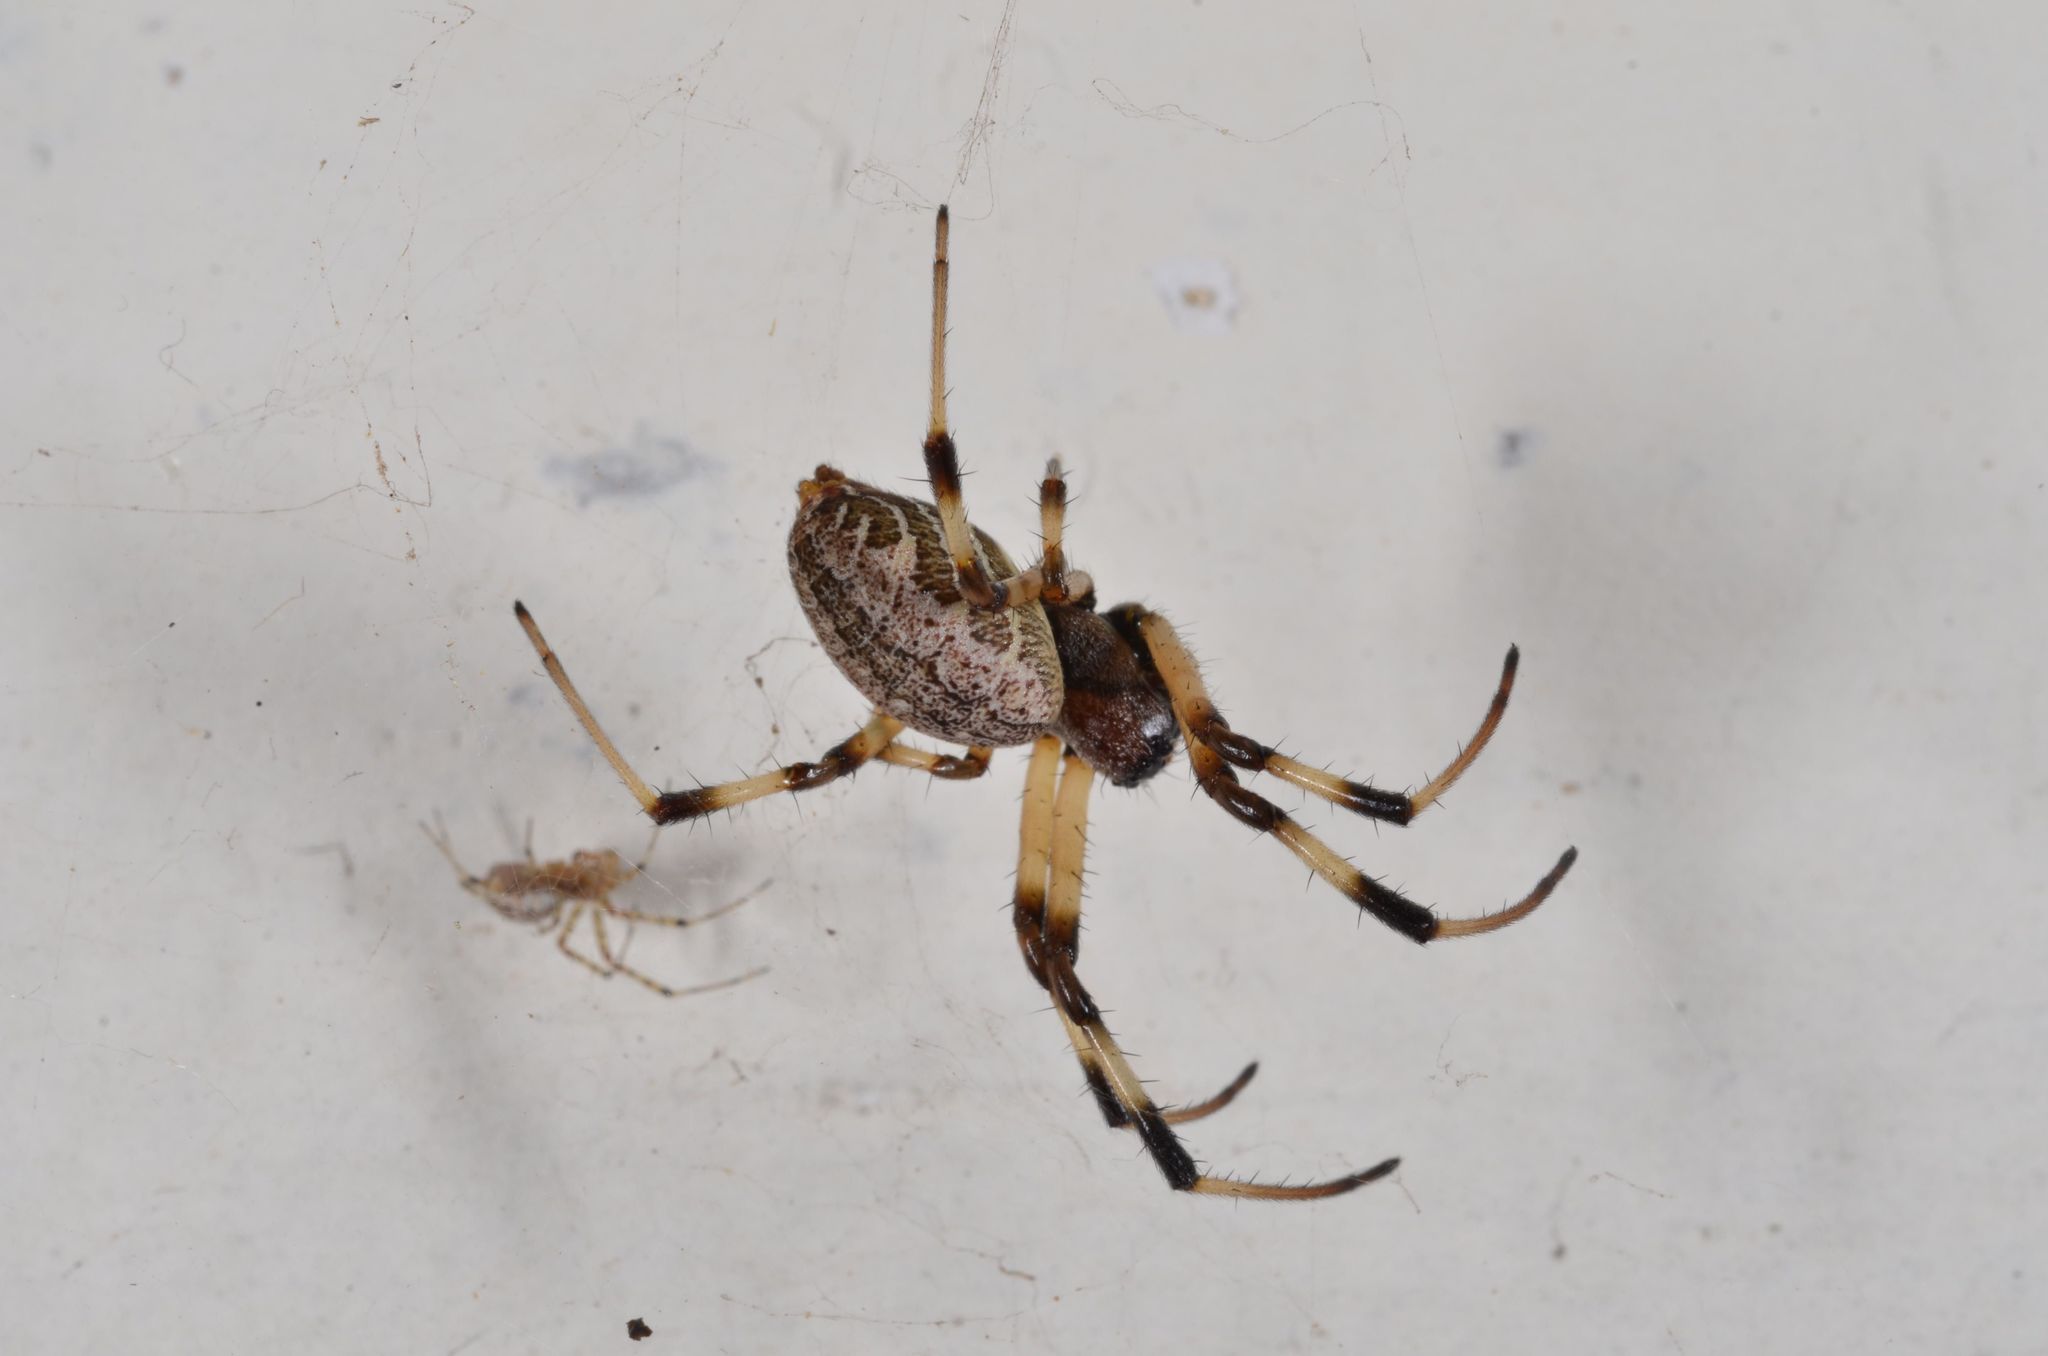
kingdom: Animalia
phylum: Arthropoda
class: Arachnida
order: Araneae
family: Araneidae
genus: Nephilengys
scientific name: Nephilengys malabarensis
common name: Asian hermit spider
